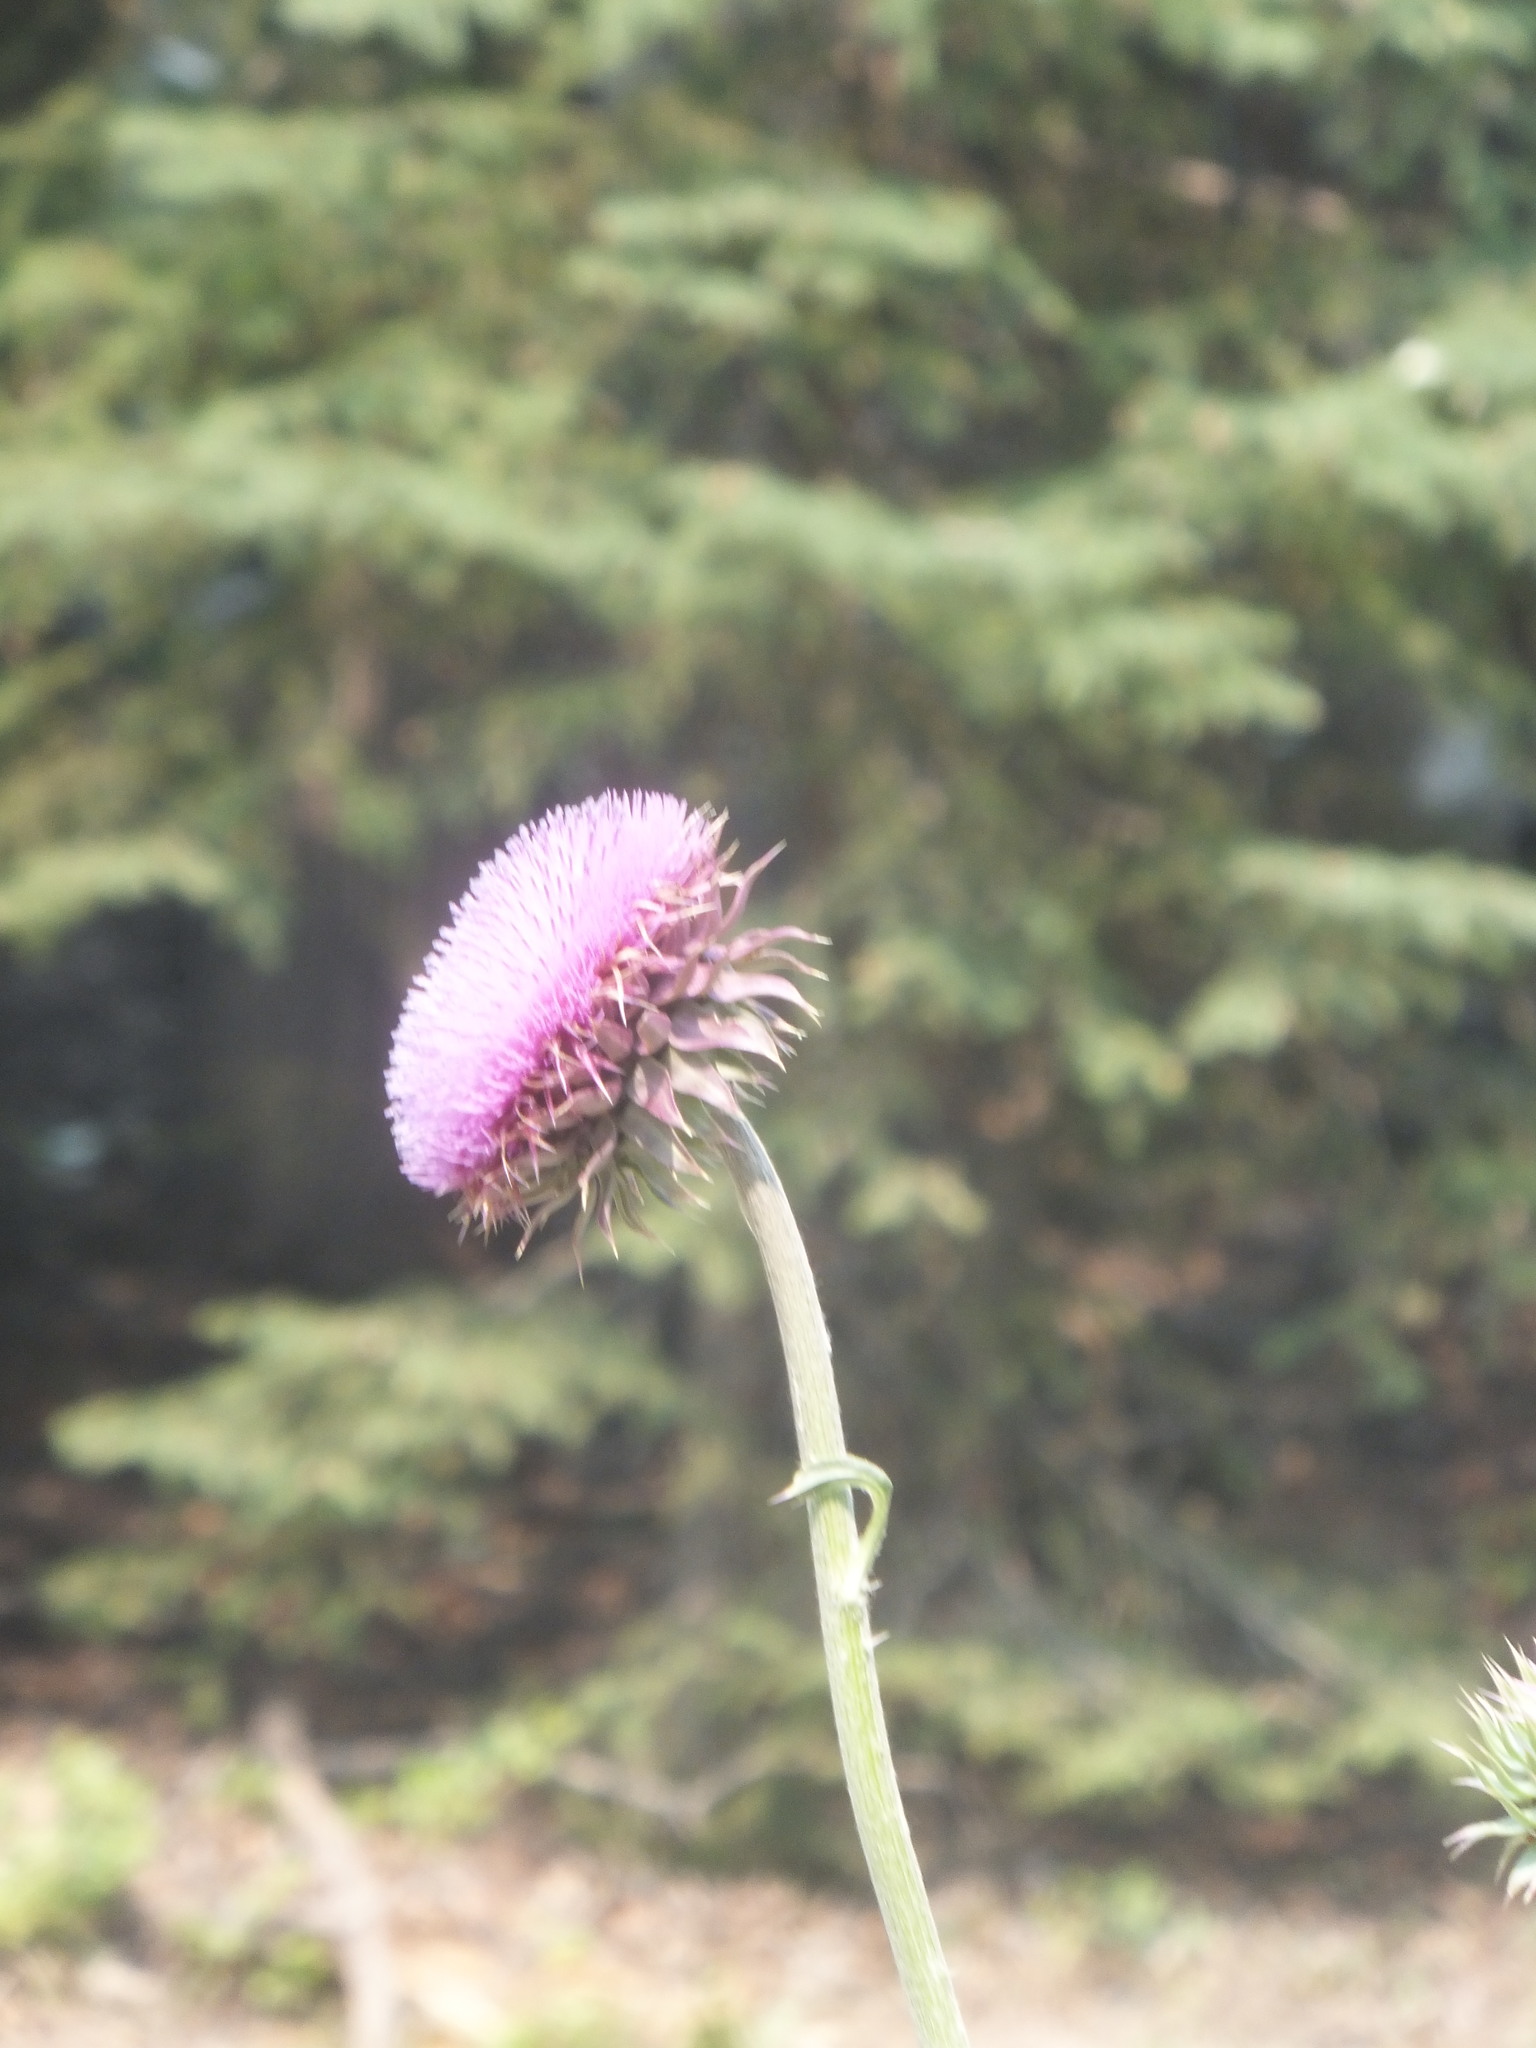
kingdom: Plantae
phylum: Tracheophyta
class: Magnoliopsida
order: Asterales
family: Asteraceae
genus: Carduus
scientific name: Carduus nutans
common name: Musk thistle
